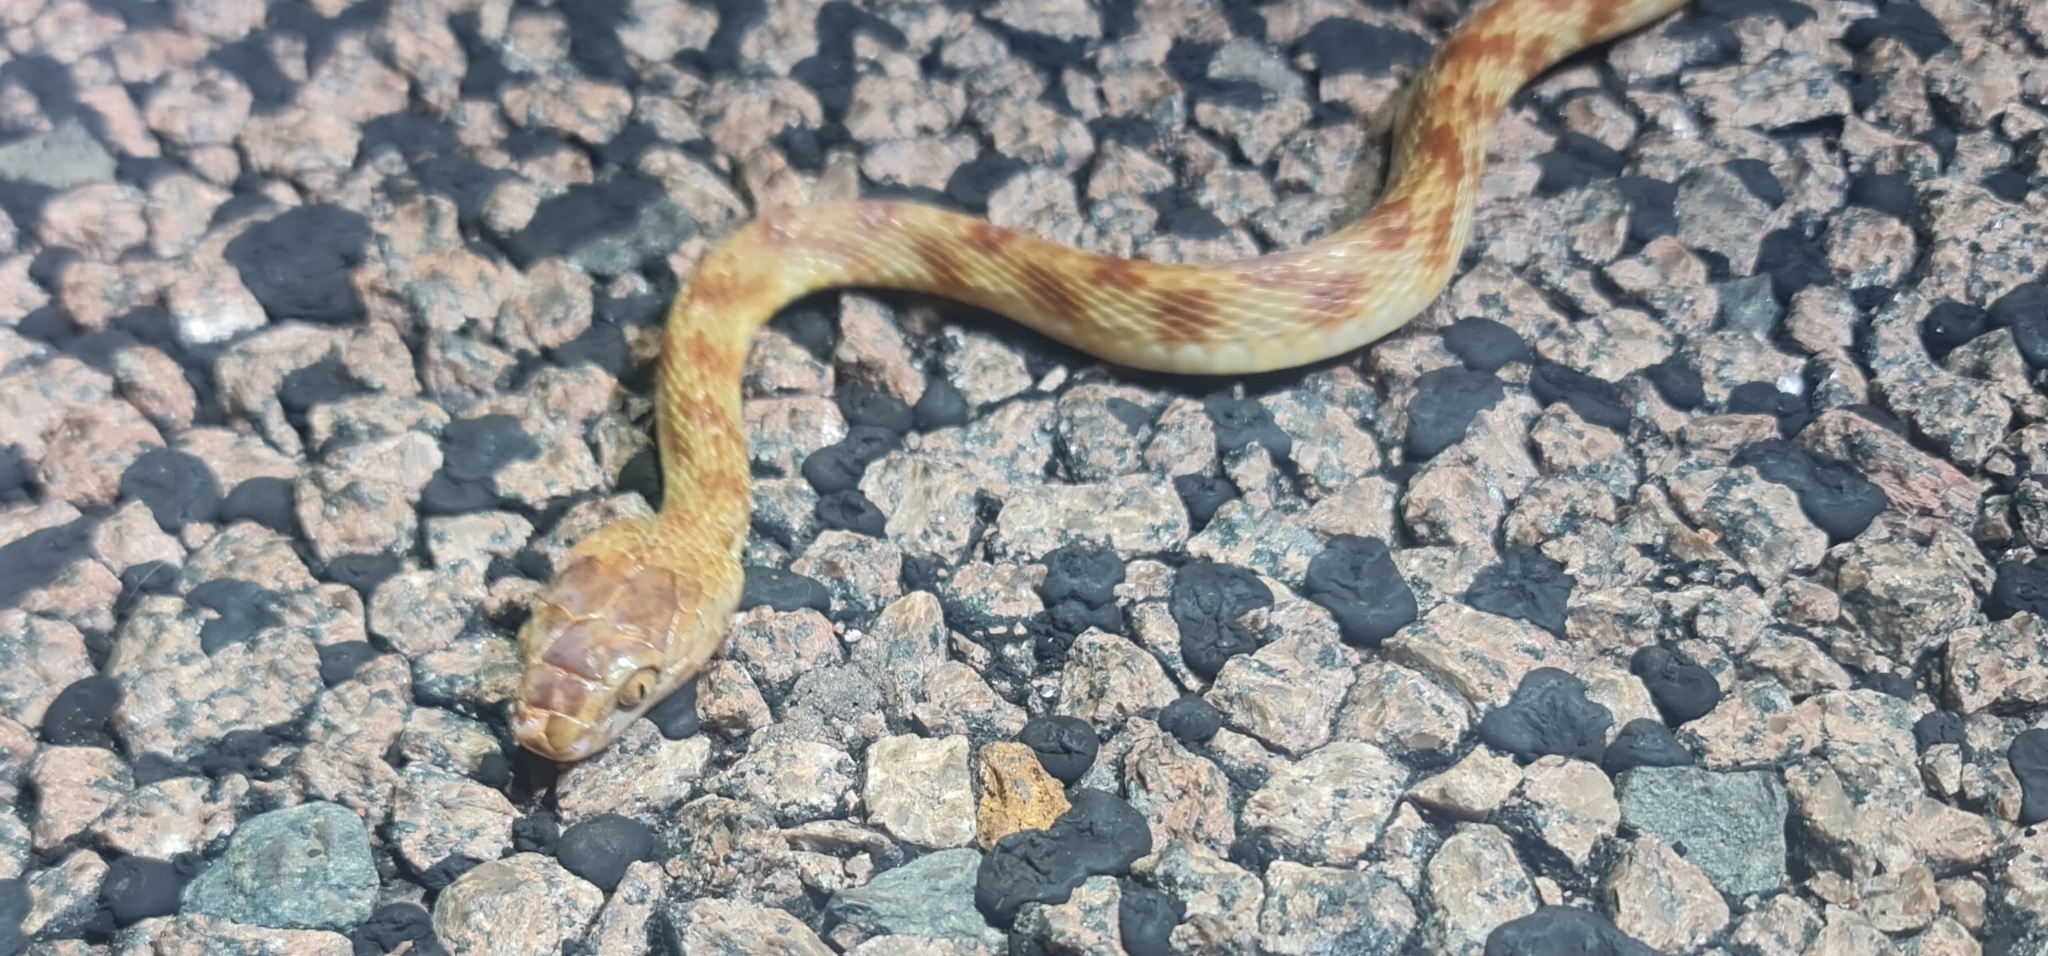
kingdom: Animalia
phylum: Chordata
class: Squamata
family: Colubridae
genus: Boiga
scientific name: Boiga irregularis
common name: Brown tree snake
